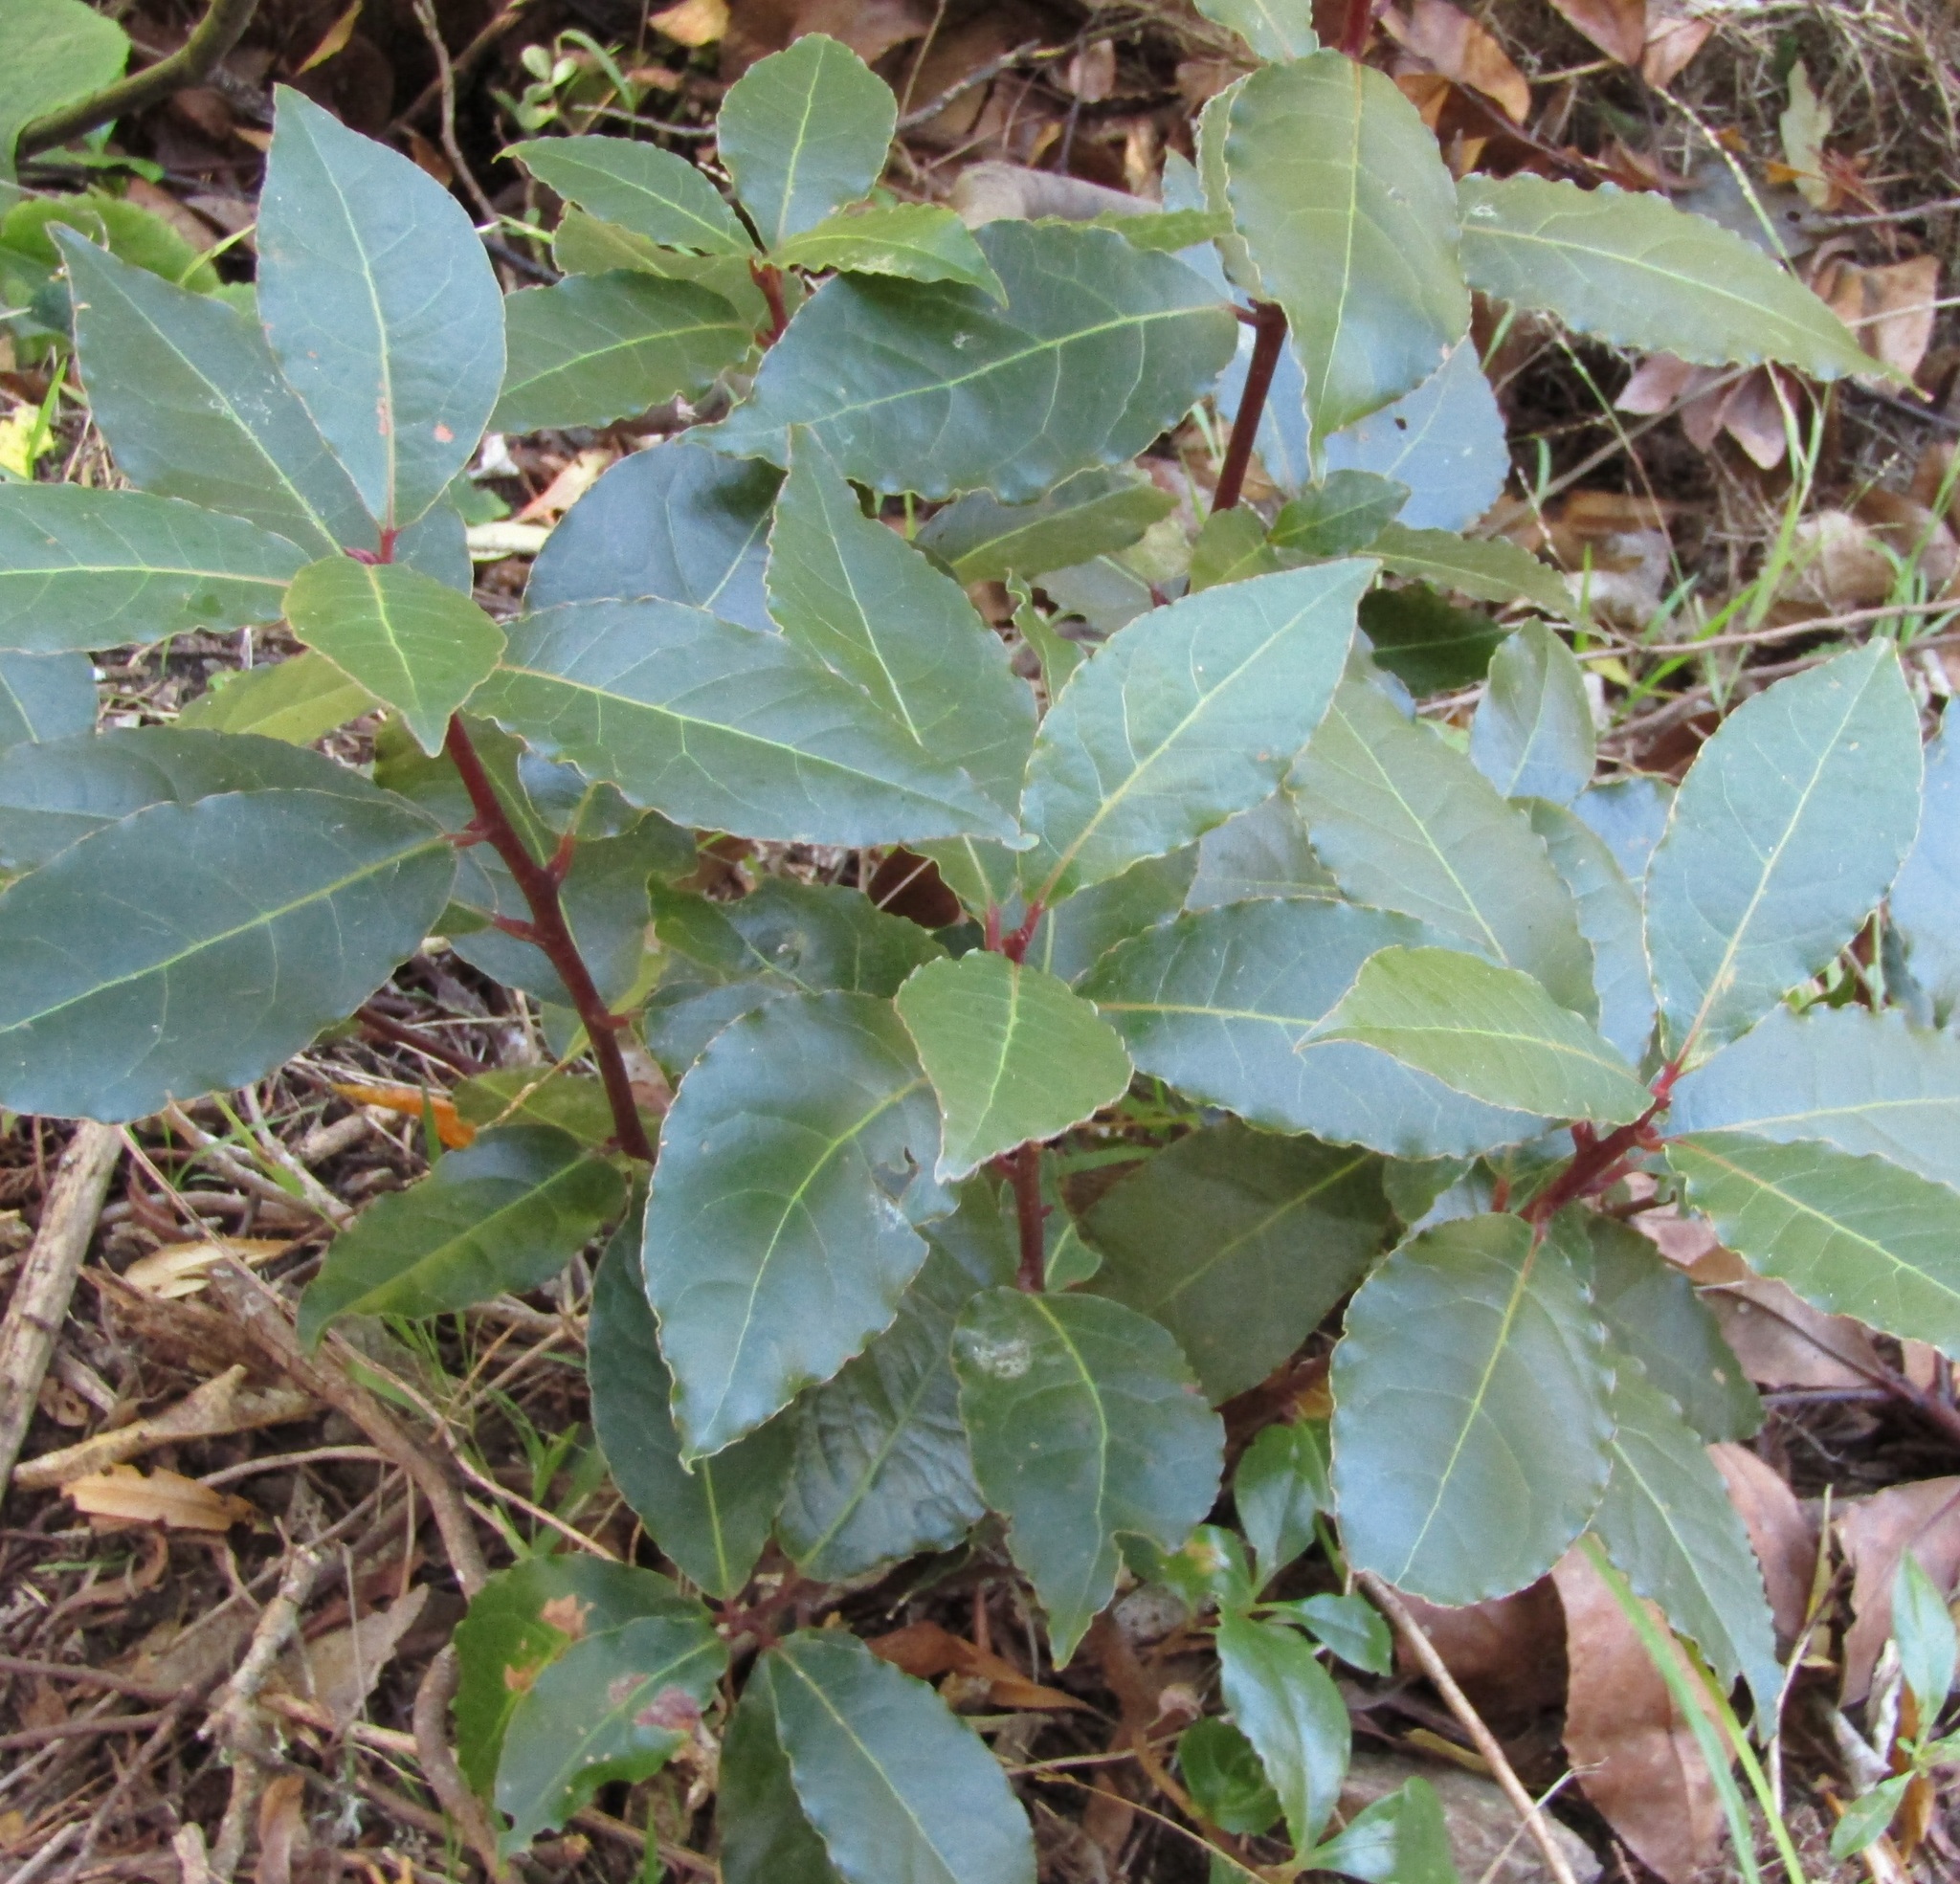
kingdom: Plantae
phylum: Tracheophyta
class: Magnoliopsida
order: Laurales
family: Lauraceae
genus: Laurus
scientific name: Laurus nobilis
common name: Bay
